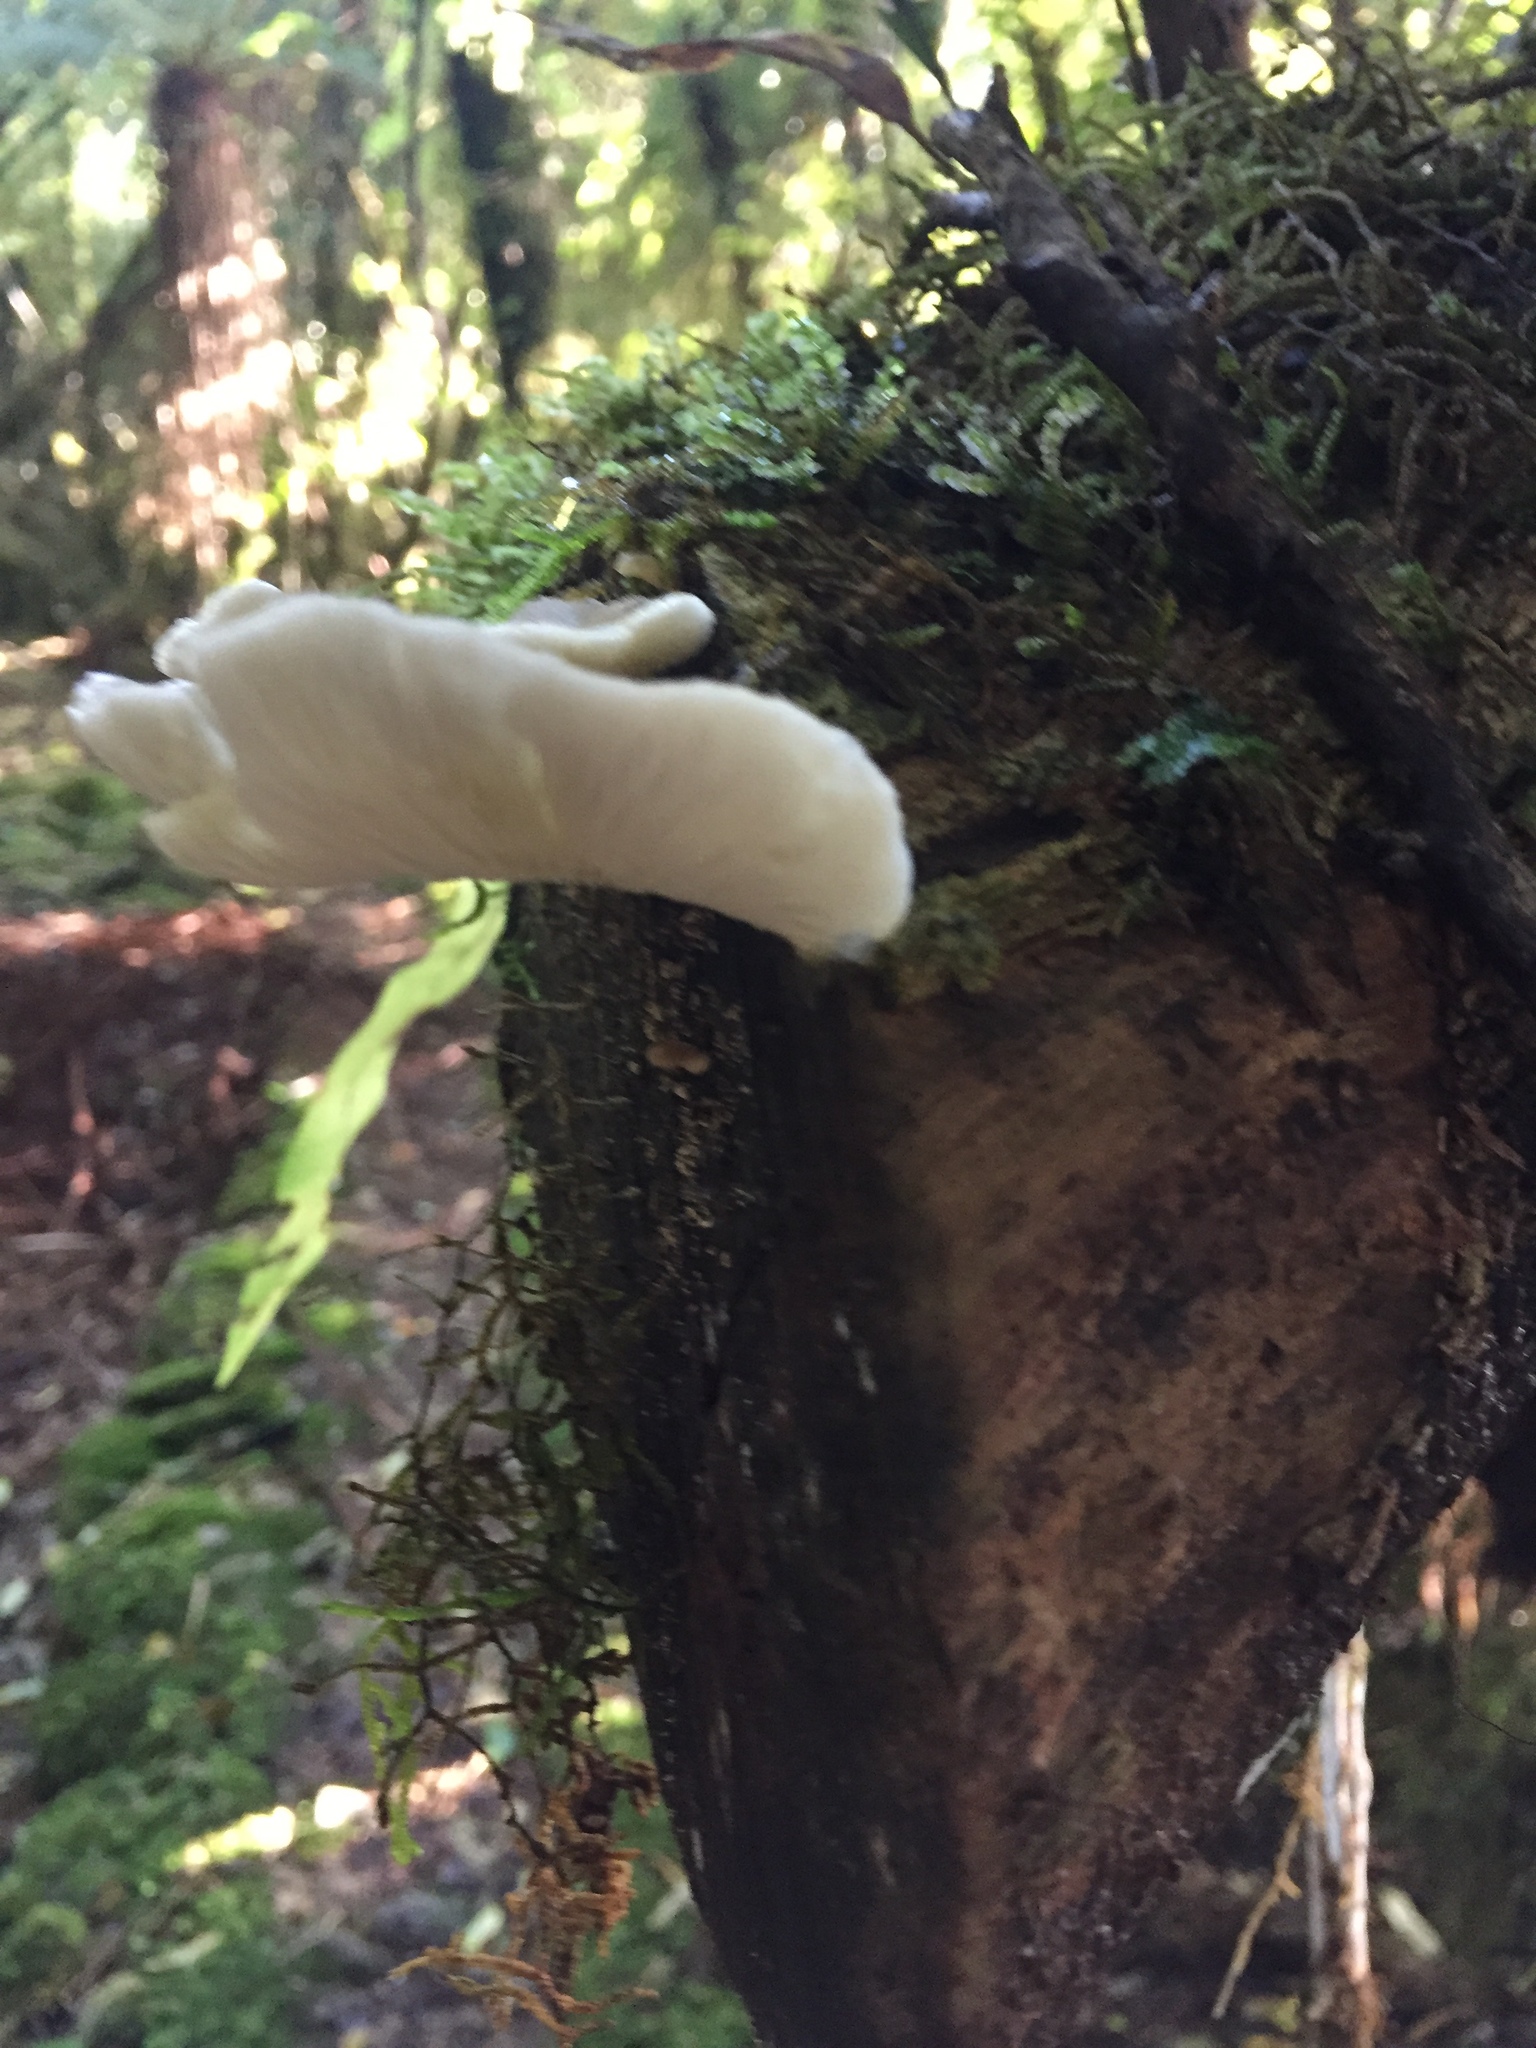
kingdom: Fungi
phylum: Basidiomycota
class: Agaricomycetes
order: Agaricales
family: Tricholomataceae
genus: Conchomyces
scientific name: Conchomyces bursiformis
